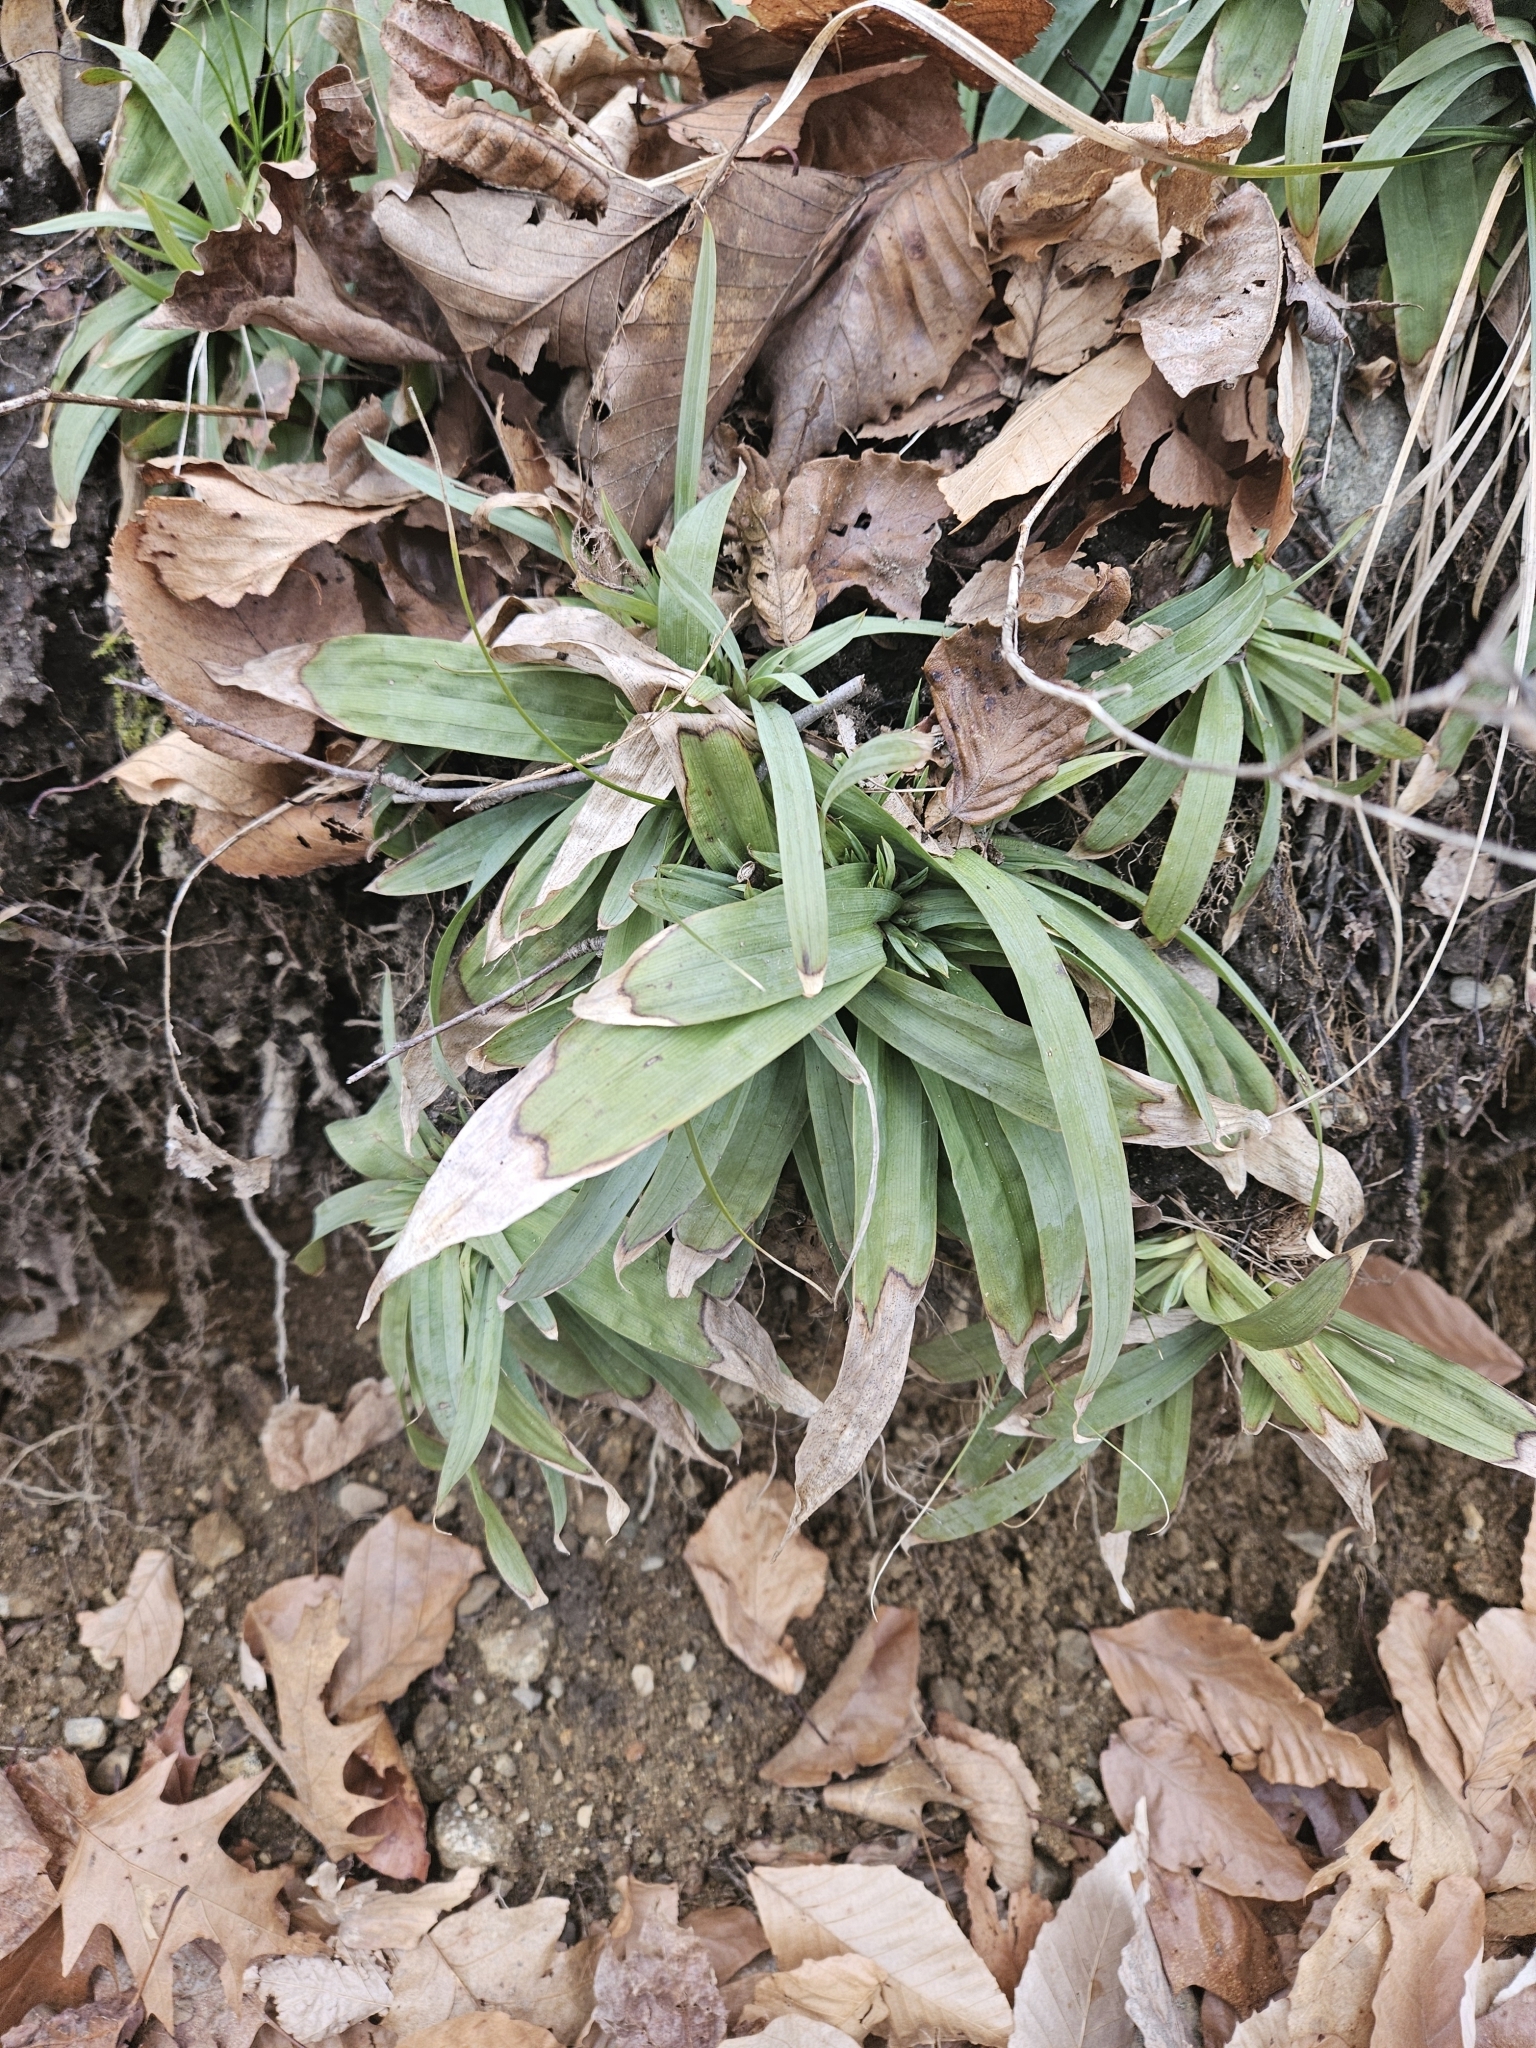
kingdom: Plantae
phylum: Tracheophyta
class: Liliopsida
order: Poales
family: Cyperaceae
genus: Carex
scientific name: Carex platyphylla
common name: Broad-leaved sedge
